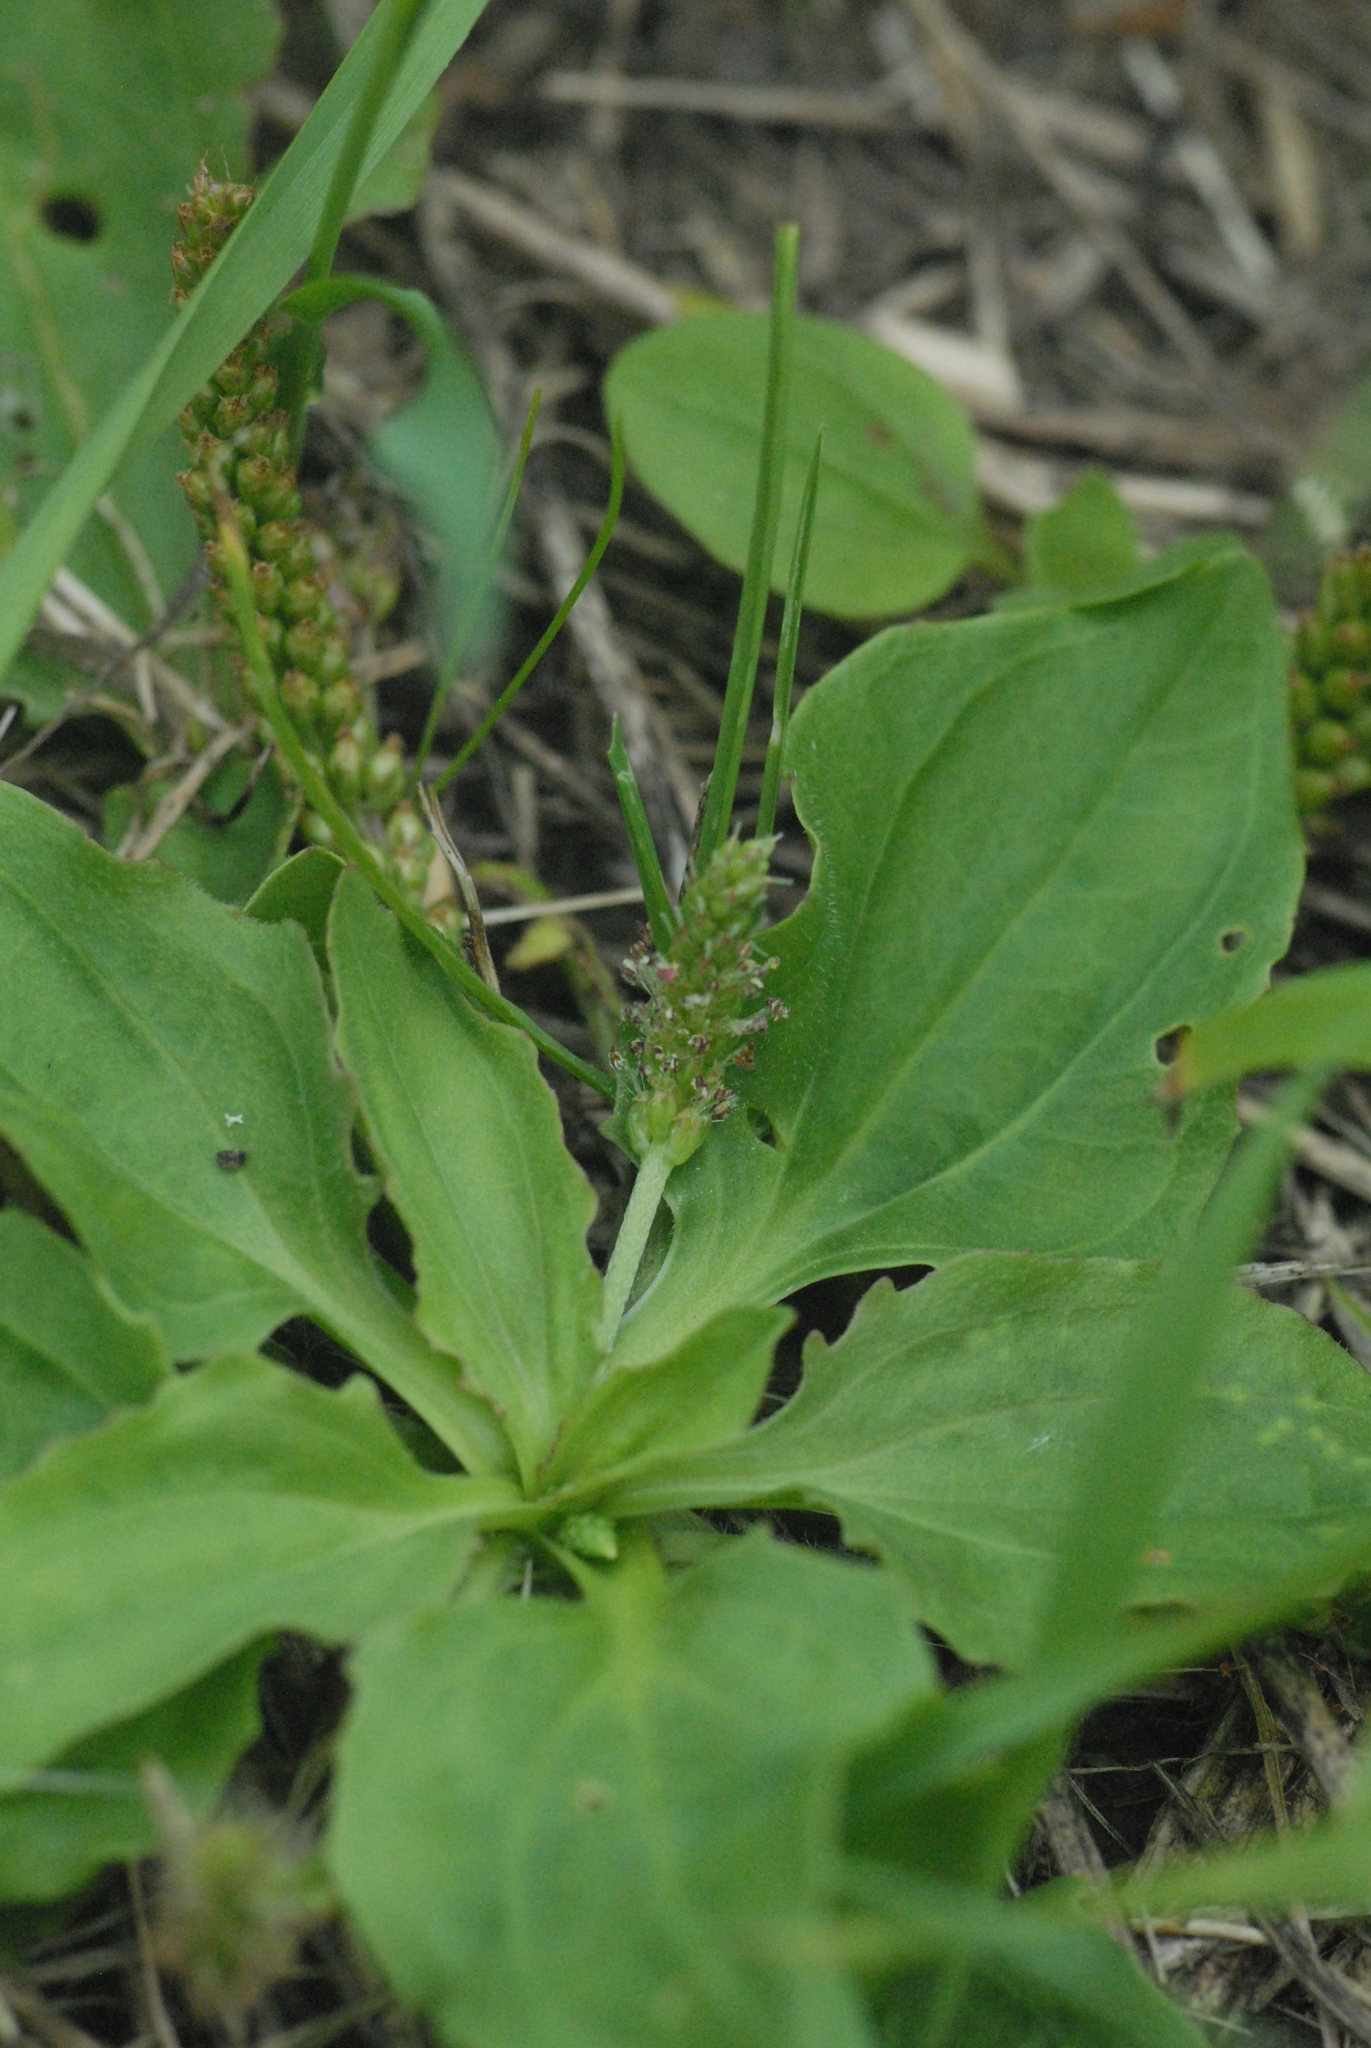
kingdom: Plantae
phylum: Tracheophyta
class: Magnoliopsida
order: Lamiales
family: Plantaginaceae
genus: Plantago
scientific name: Plantago major
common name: Common plantain
